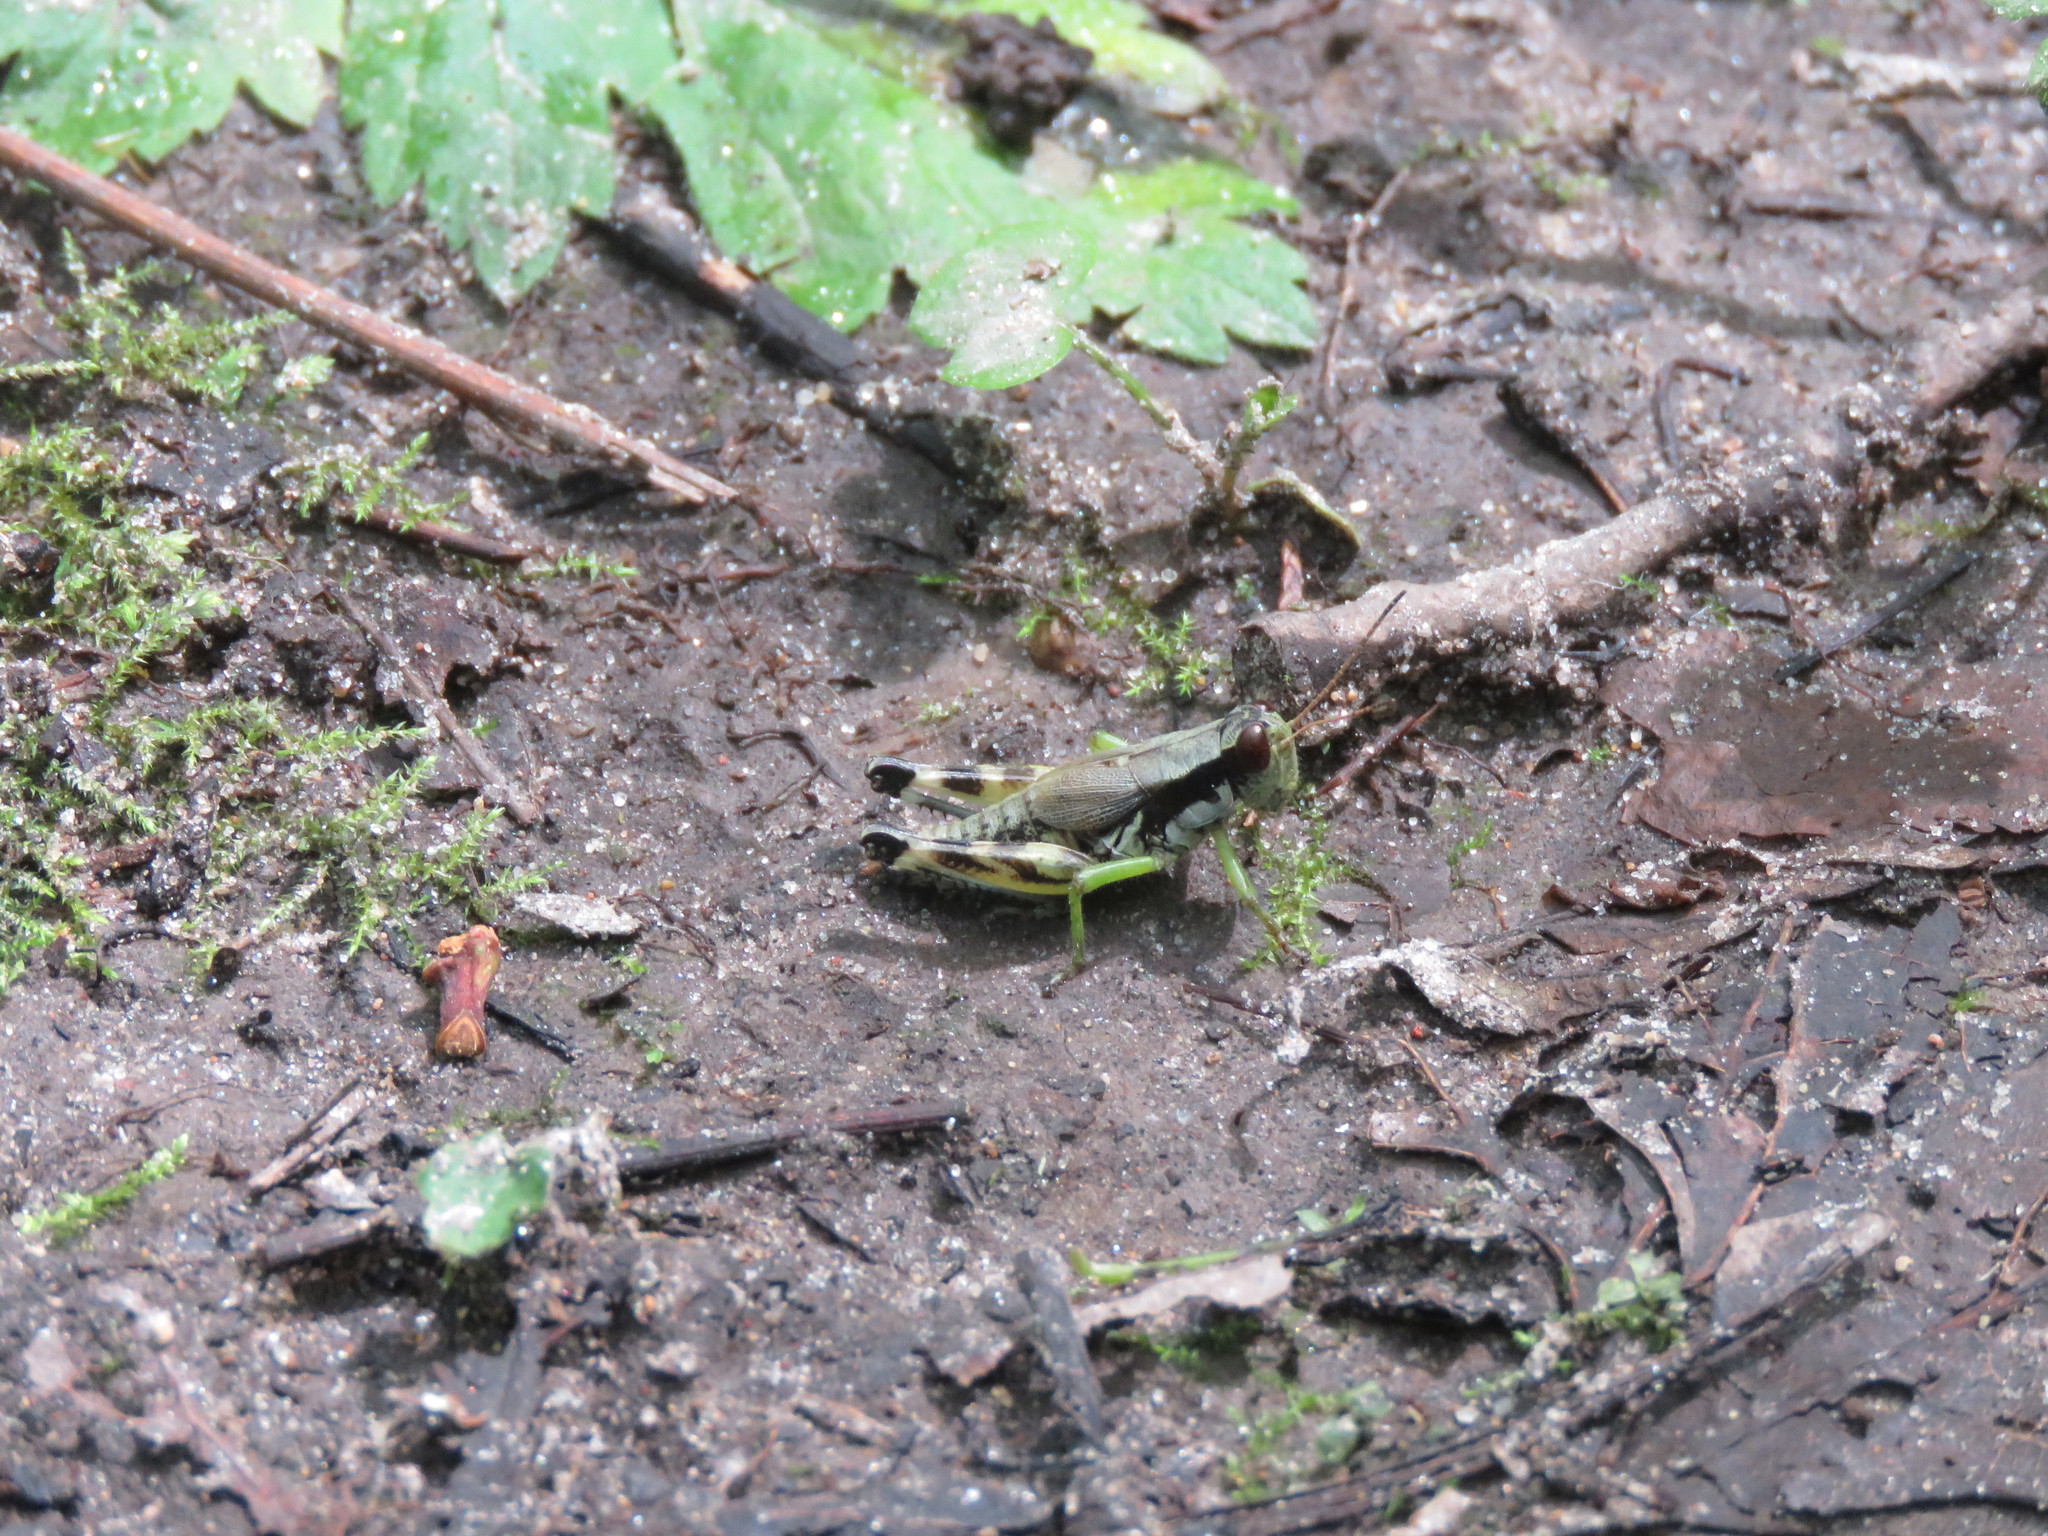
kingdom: Animalia
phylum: Arthropoda
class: Insecta
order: Orthoptera
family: Acrididae
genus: Melanoplus
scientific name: Melanoplus viridipes
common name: Green-legged locust
